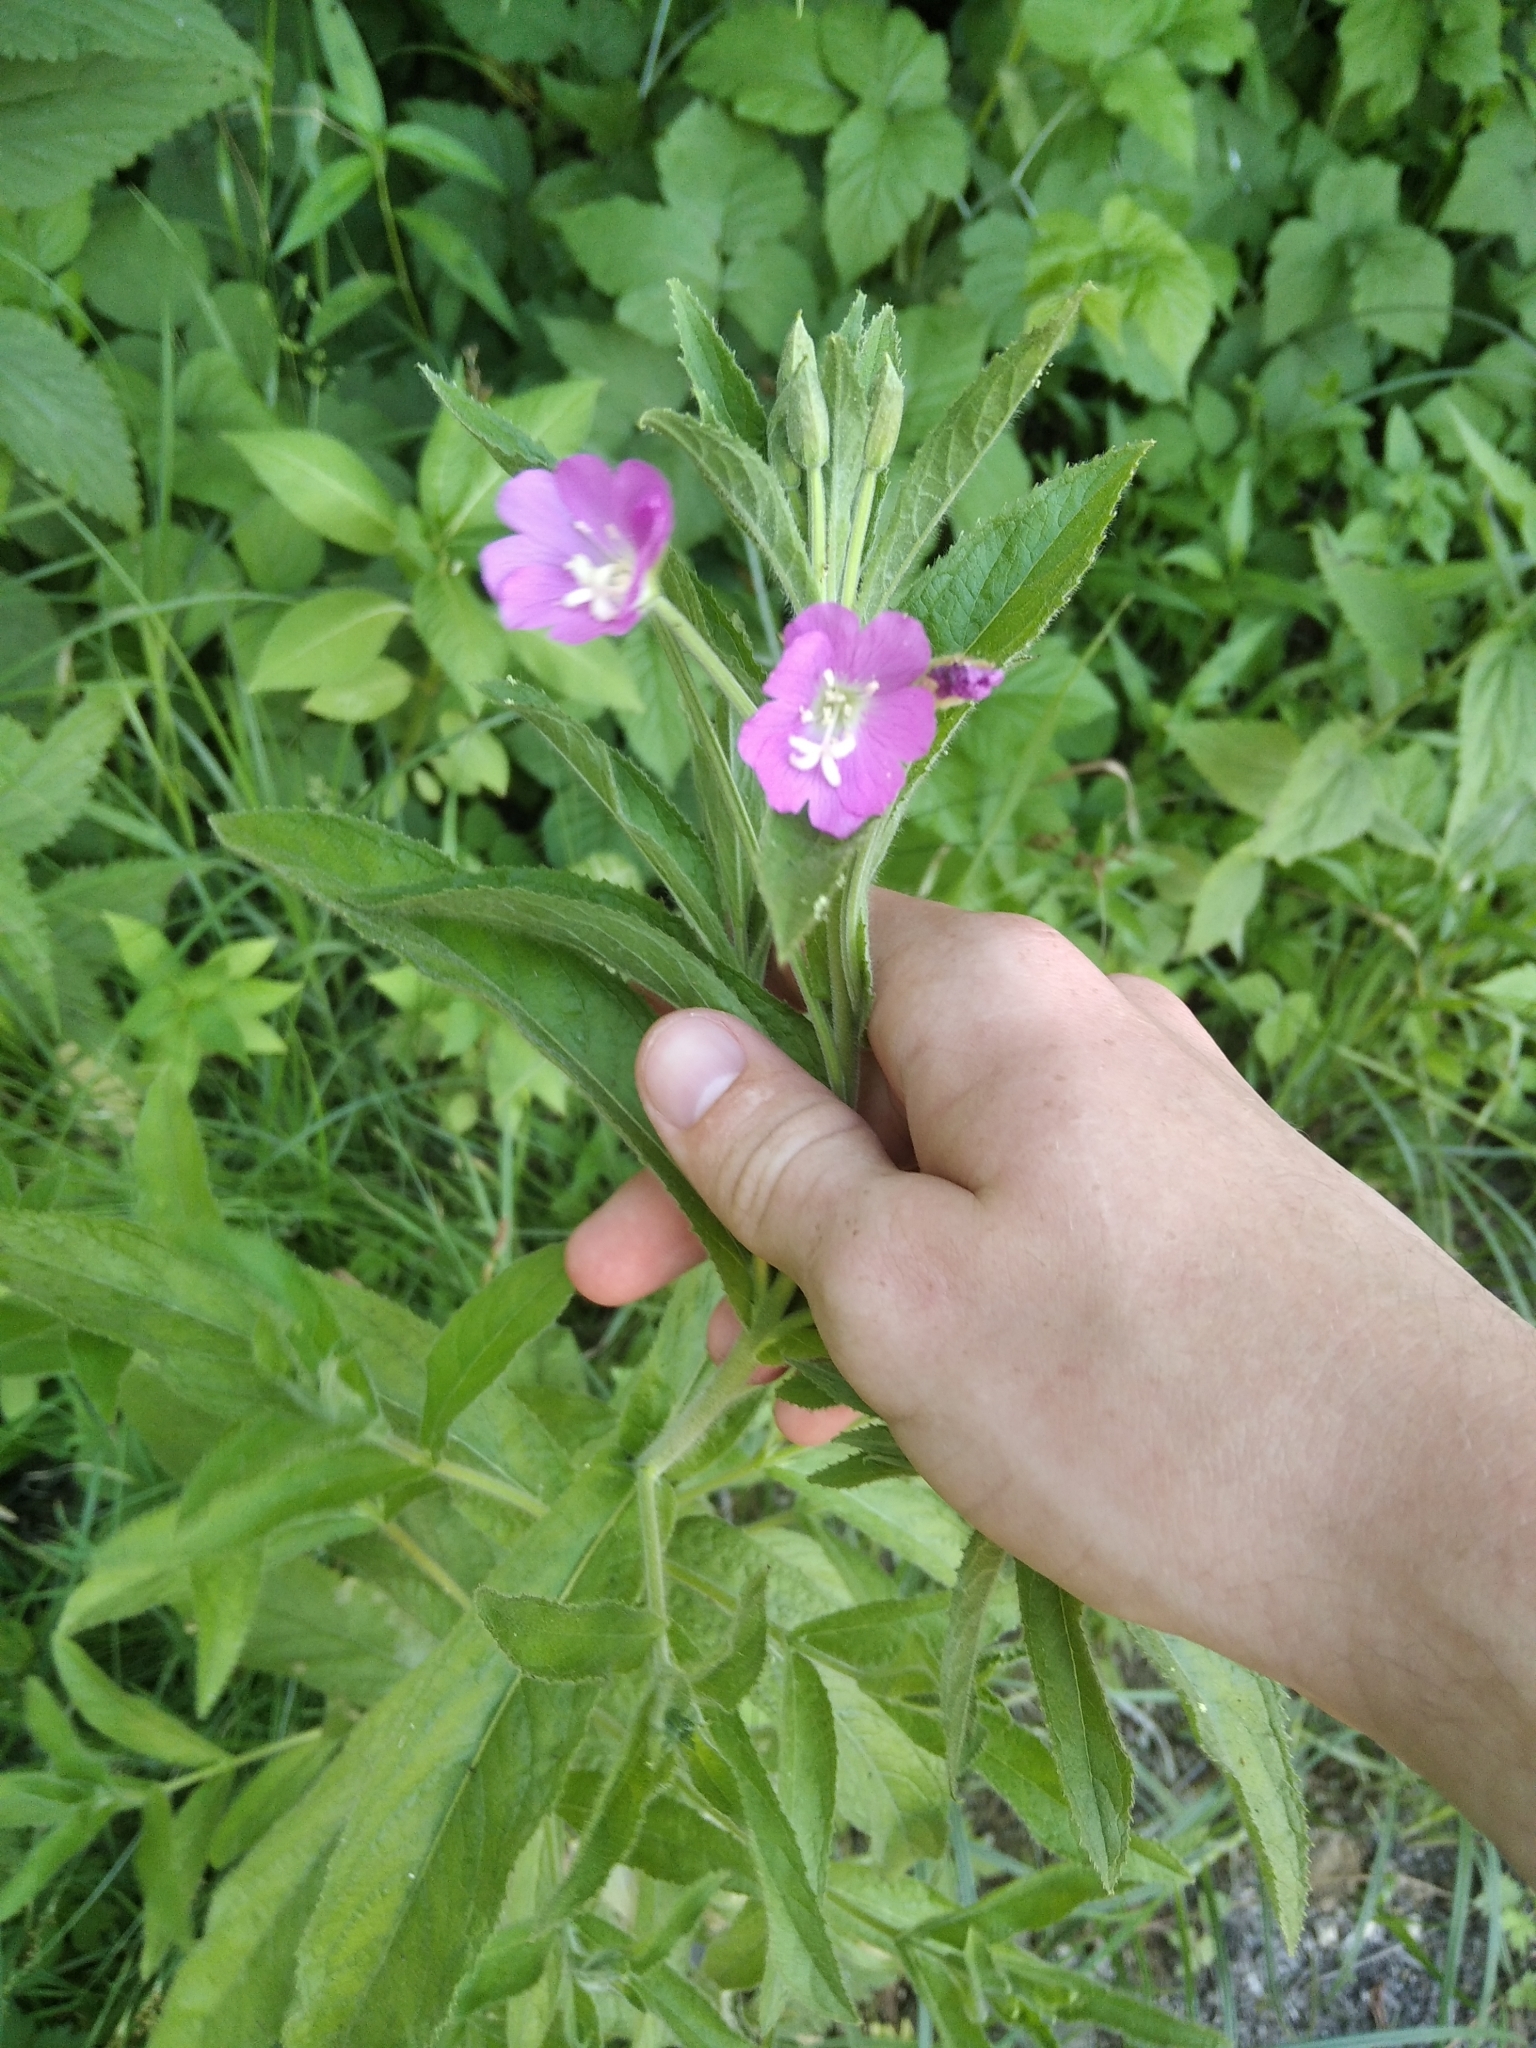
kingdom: Plantae
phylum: Tracheophyta
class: Magnoliopsida
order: Myrtales
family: Onagraceae
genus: Epilobium
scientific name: Epilobium hirsutum
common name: Great willowherb
